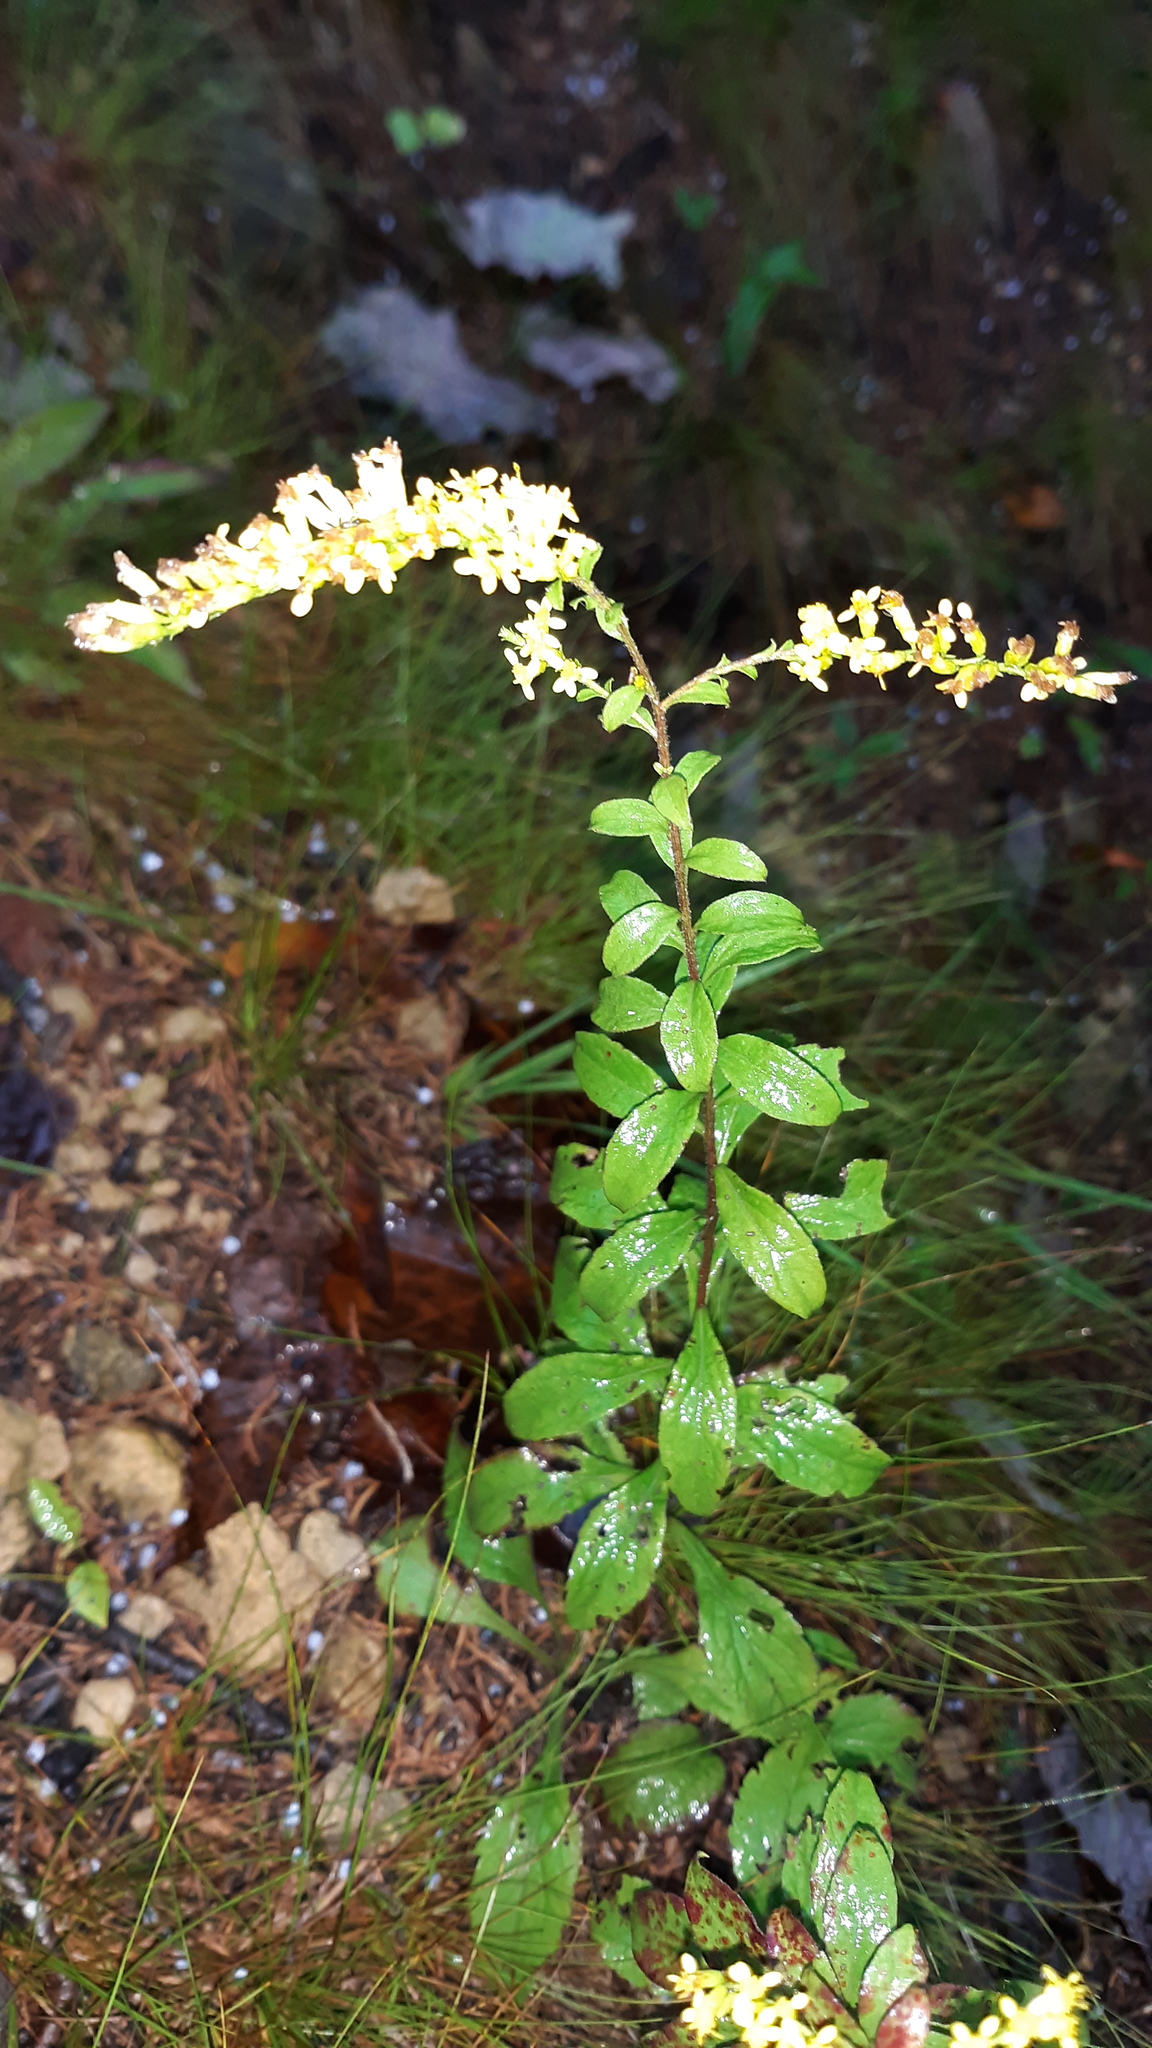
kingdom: Plantae
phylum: Tracheophyta
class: Magnoliopsida
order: Asterales
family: Asteraceae
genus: Solidago
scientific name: Solidago ulmifolia
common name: Elm-leaf goldenrod
